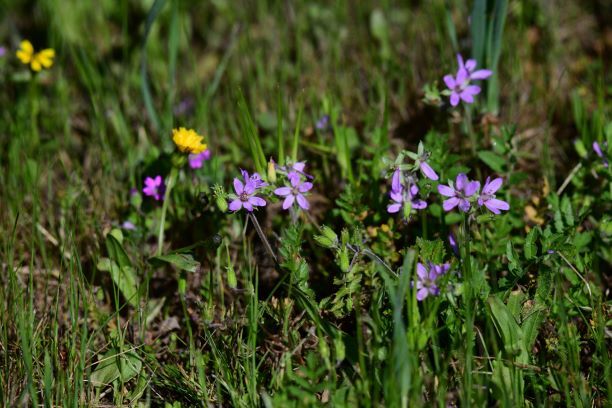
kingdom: Plantae
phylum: Tracheophyta
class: Magnoliopsida
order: Geraniales
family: Geraniaceae
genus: Erodium
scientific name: Erodium cicutarium
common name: Common stork's-bill
